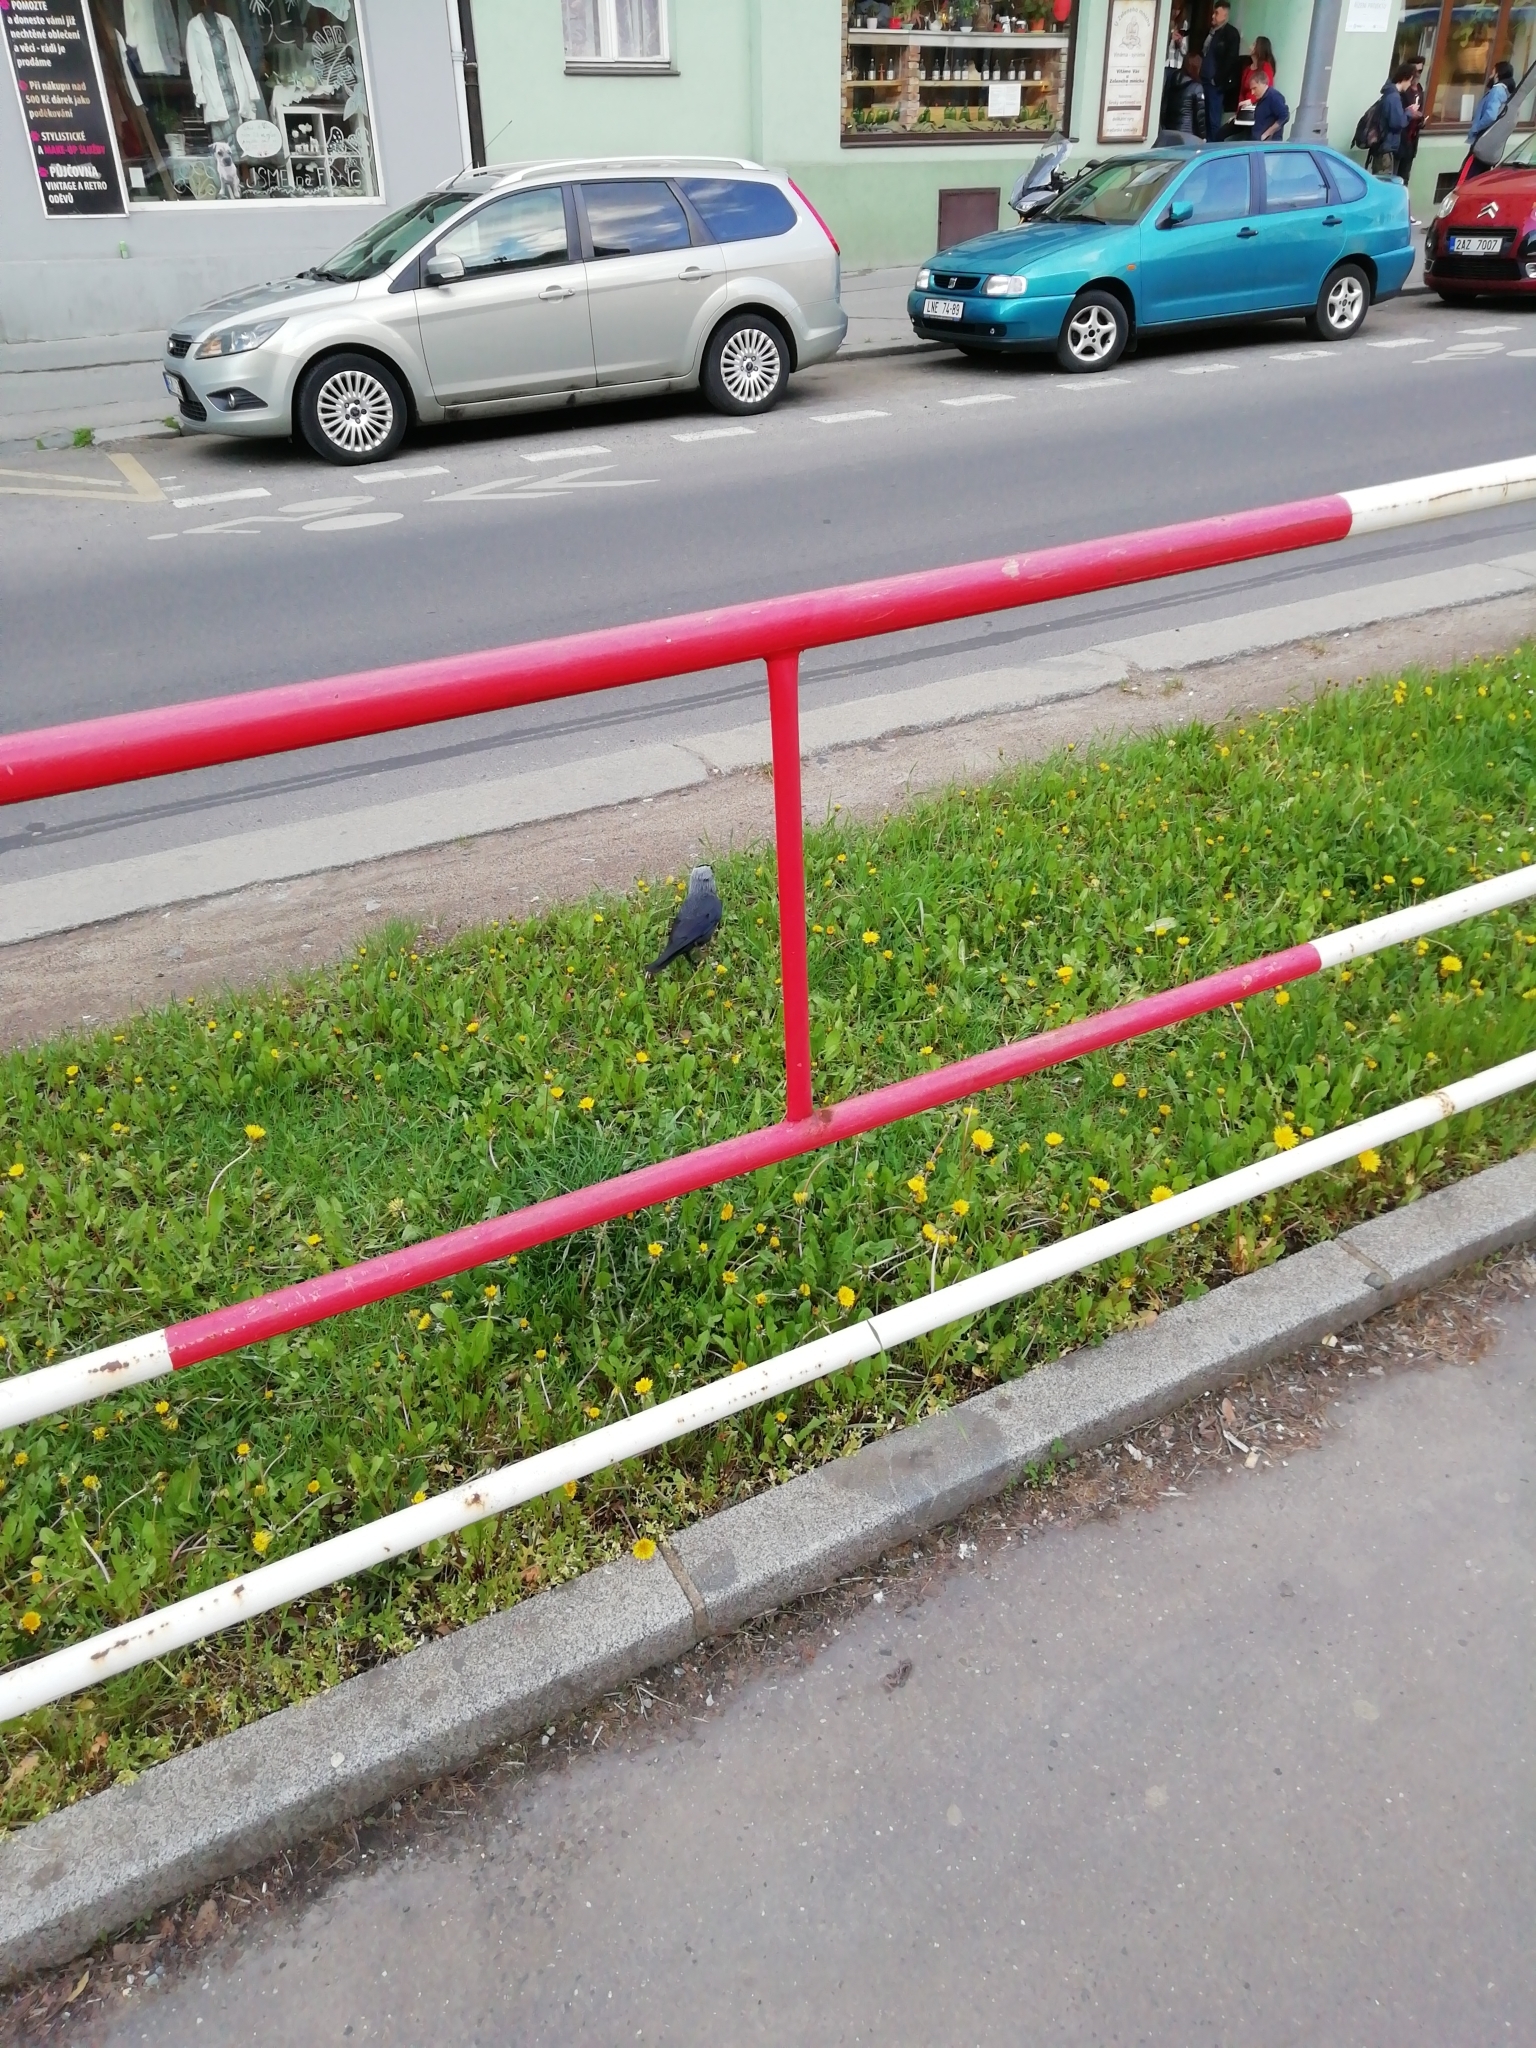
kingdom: Animalia
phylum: Chordata
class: Aves
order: Passeriformes
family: Corvidae
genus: Coloeus
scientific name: Coloeus monedula
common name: Western jackdaw
